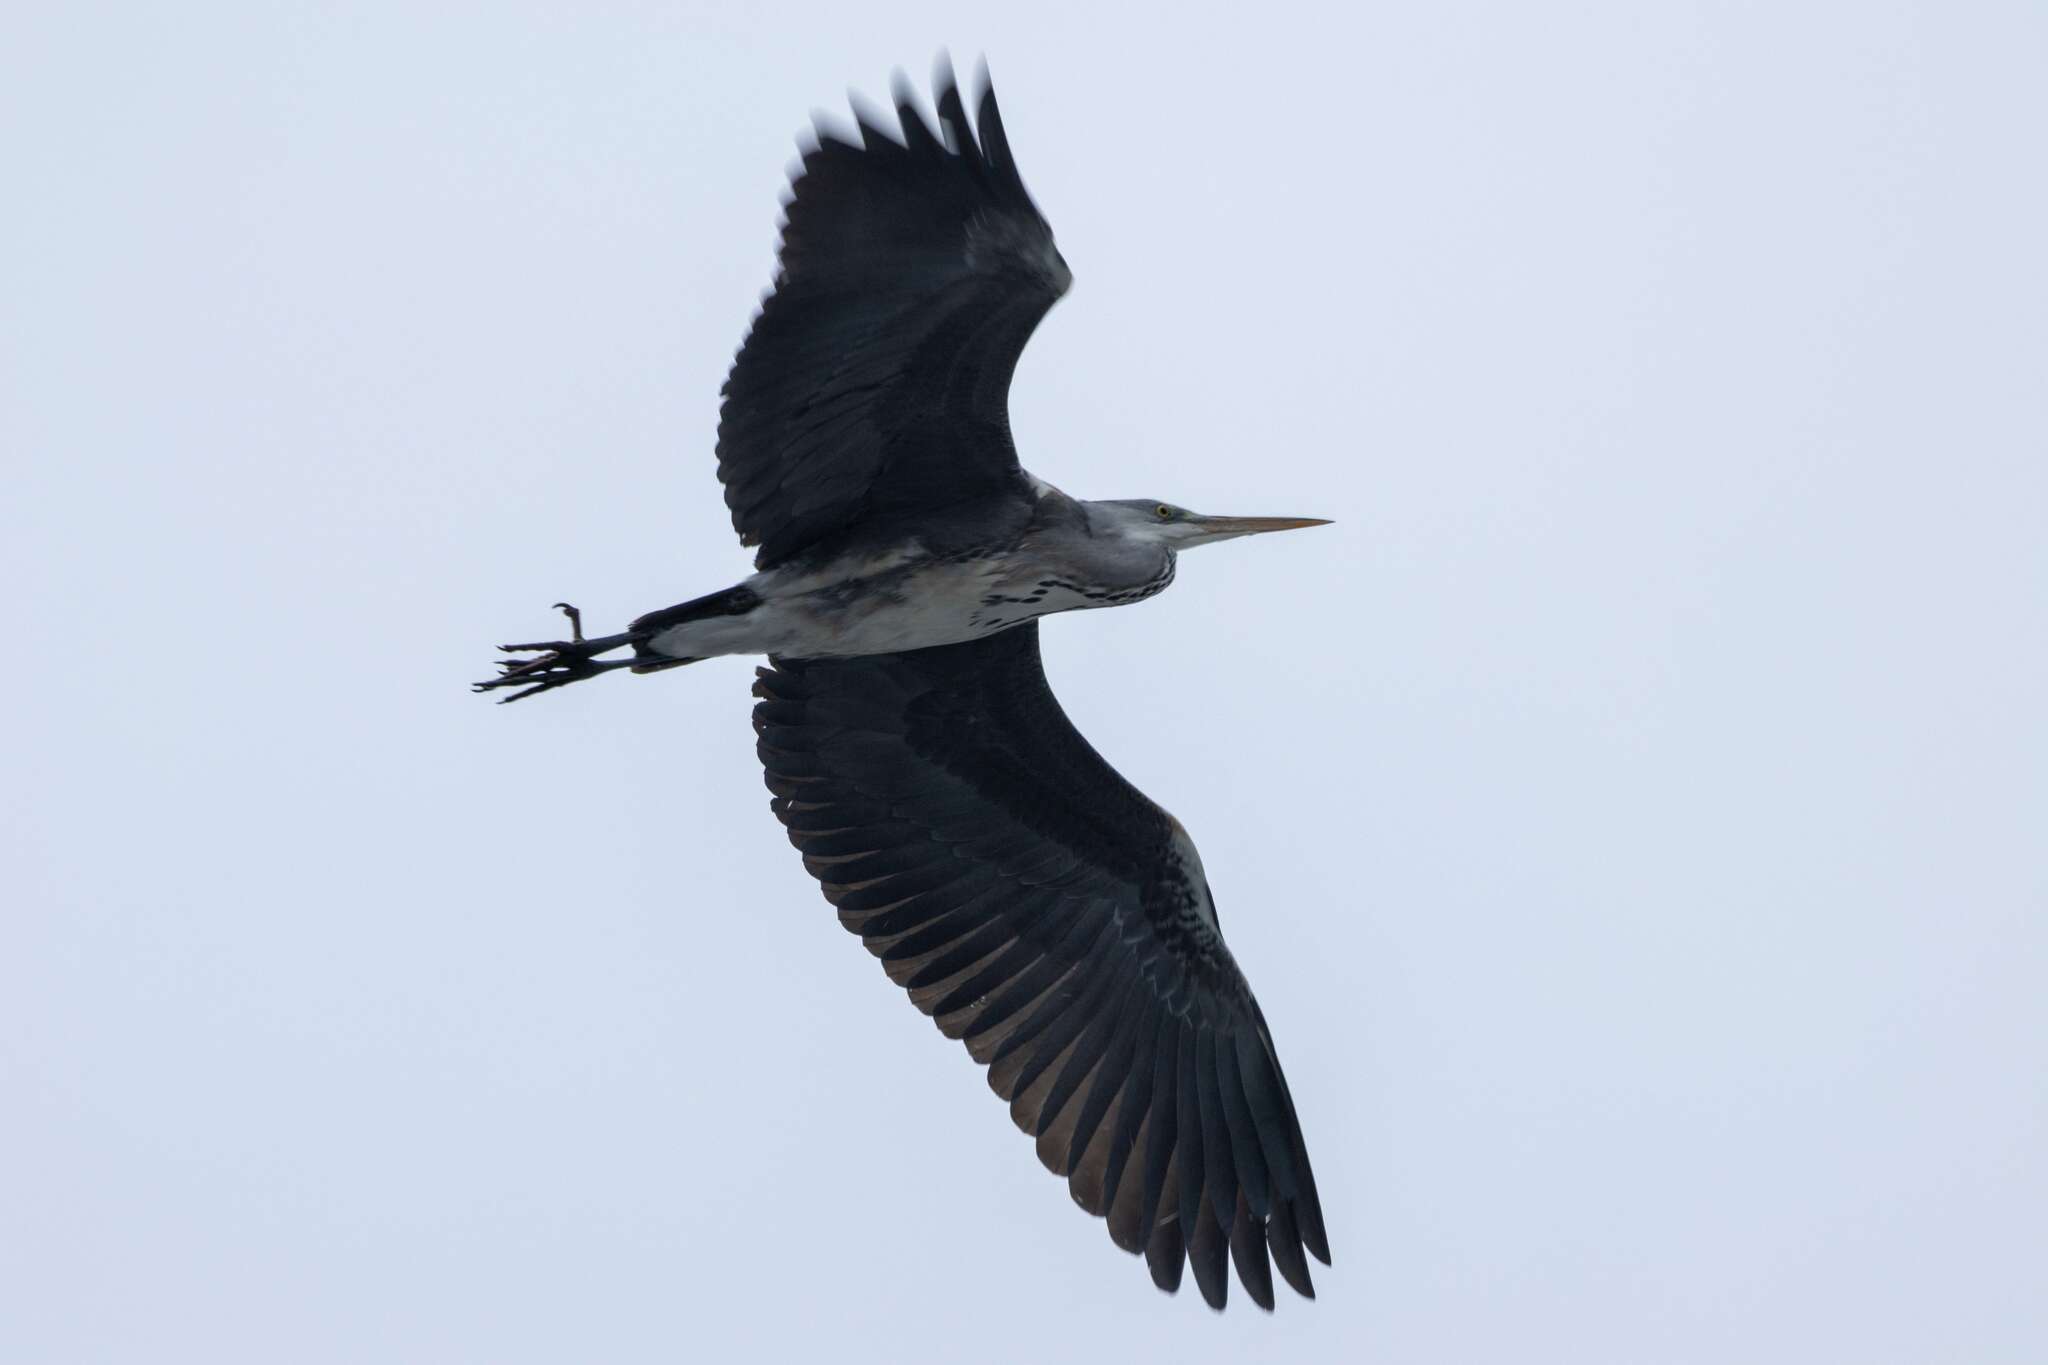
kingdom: Animalia
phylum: Chordata
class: Aves
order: Pelecaniformes
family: Ardeidae
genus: Ardea
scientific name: Ardea cinerea
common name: Grey heron
